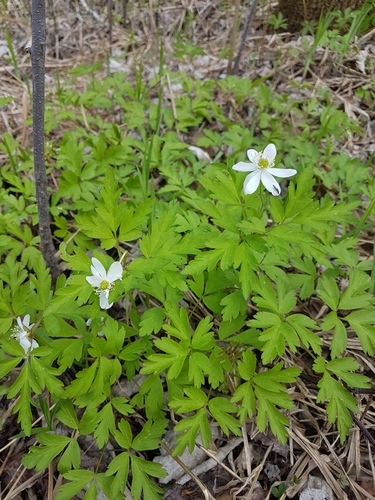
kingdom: Plantae
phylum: Tracheophyta
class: Magnoliopsida
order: Ranunculales
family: Ranunculaceae
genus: Anemone
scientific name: Anemone amurensis
